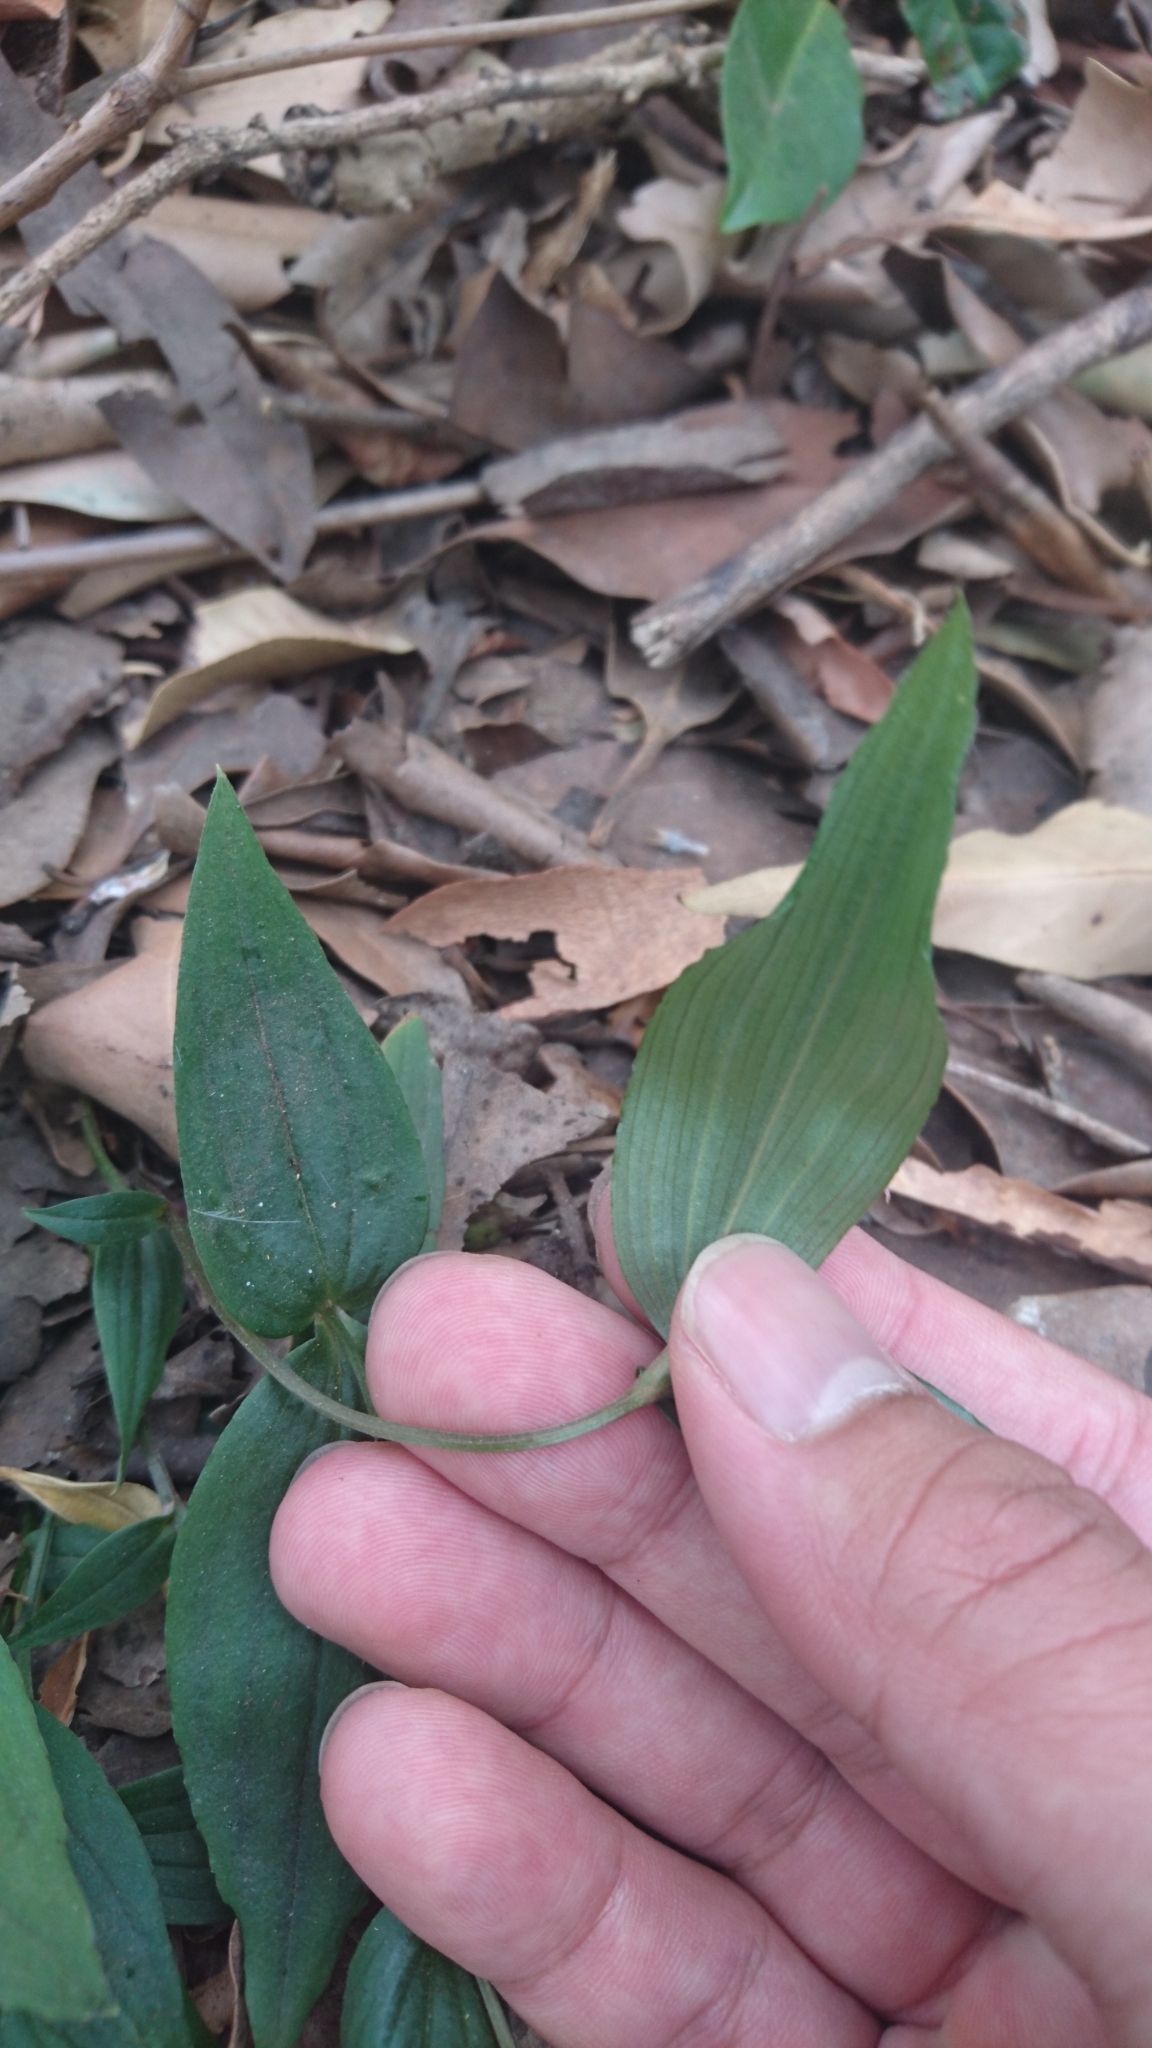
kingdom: Plantae
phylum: Tracheophyta
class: Liliopsida
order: Liliales
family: Colchicaceae
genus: Schelhammera
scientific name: Schelhammera undulata
